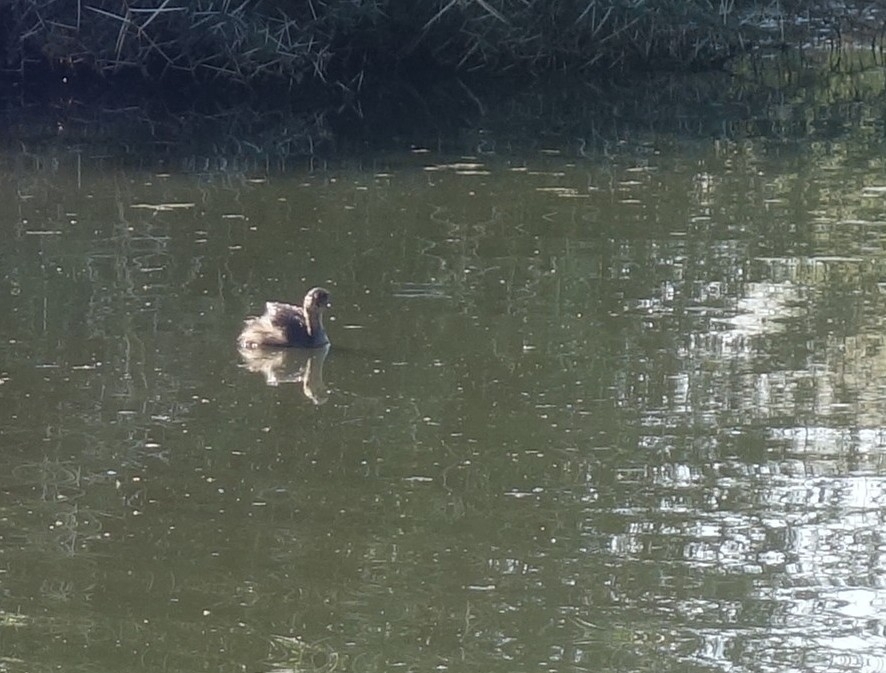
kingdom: Animalia
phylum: Chordata
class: Aves
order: Podicipediformes
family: Podicipedidae
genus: Tachybaptus
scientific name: Tachybaptus ruficollis
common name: Little grebe
